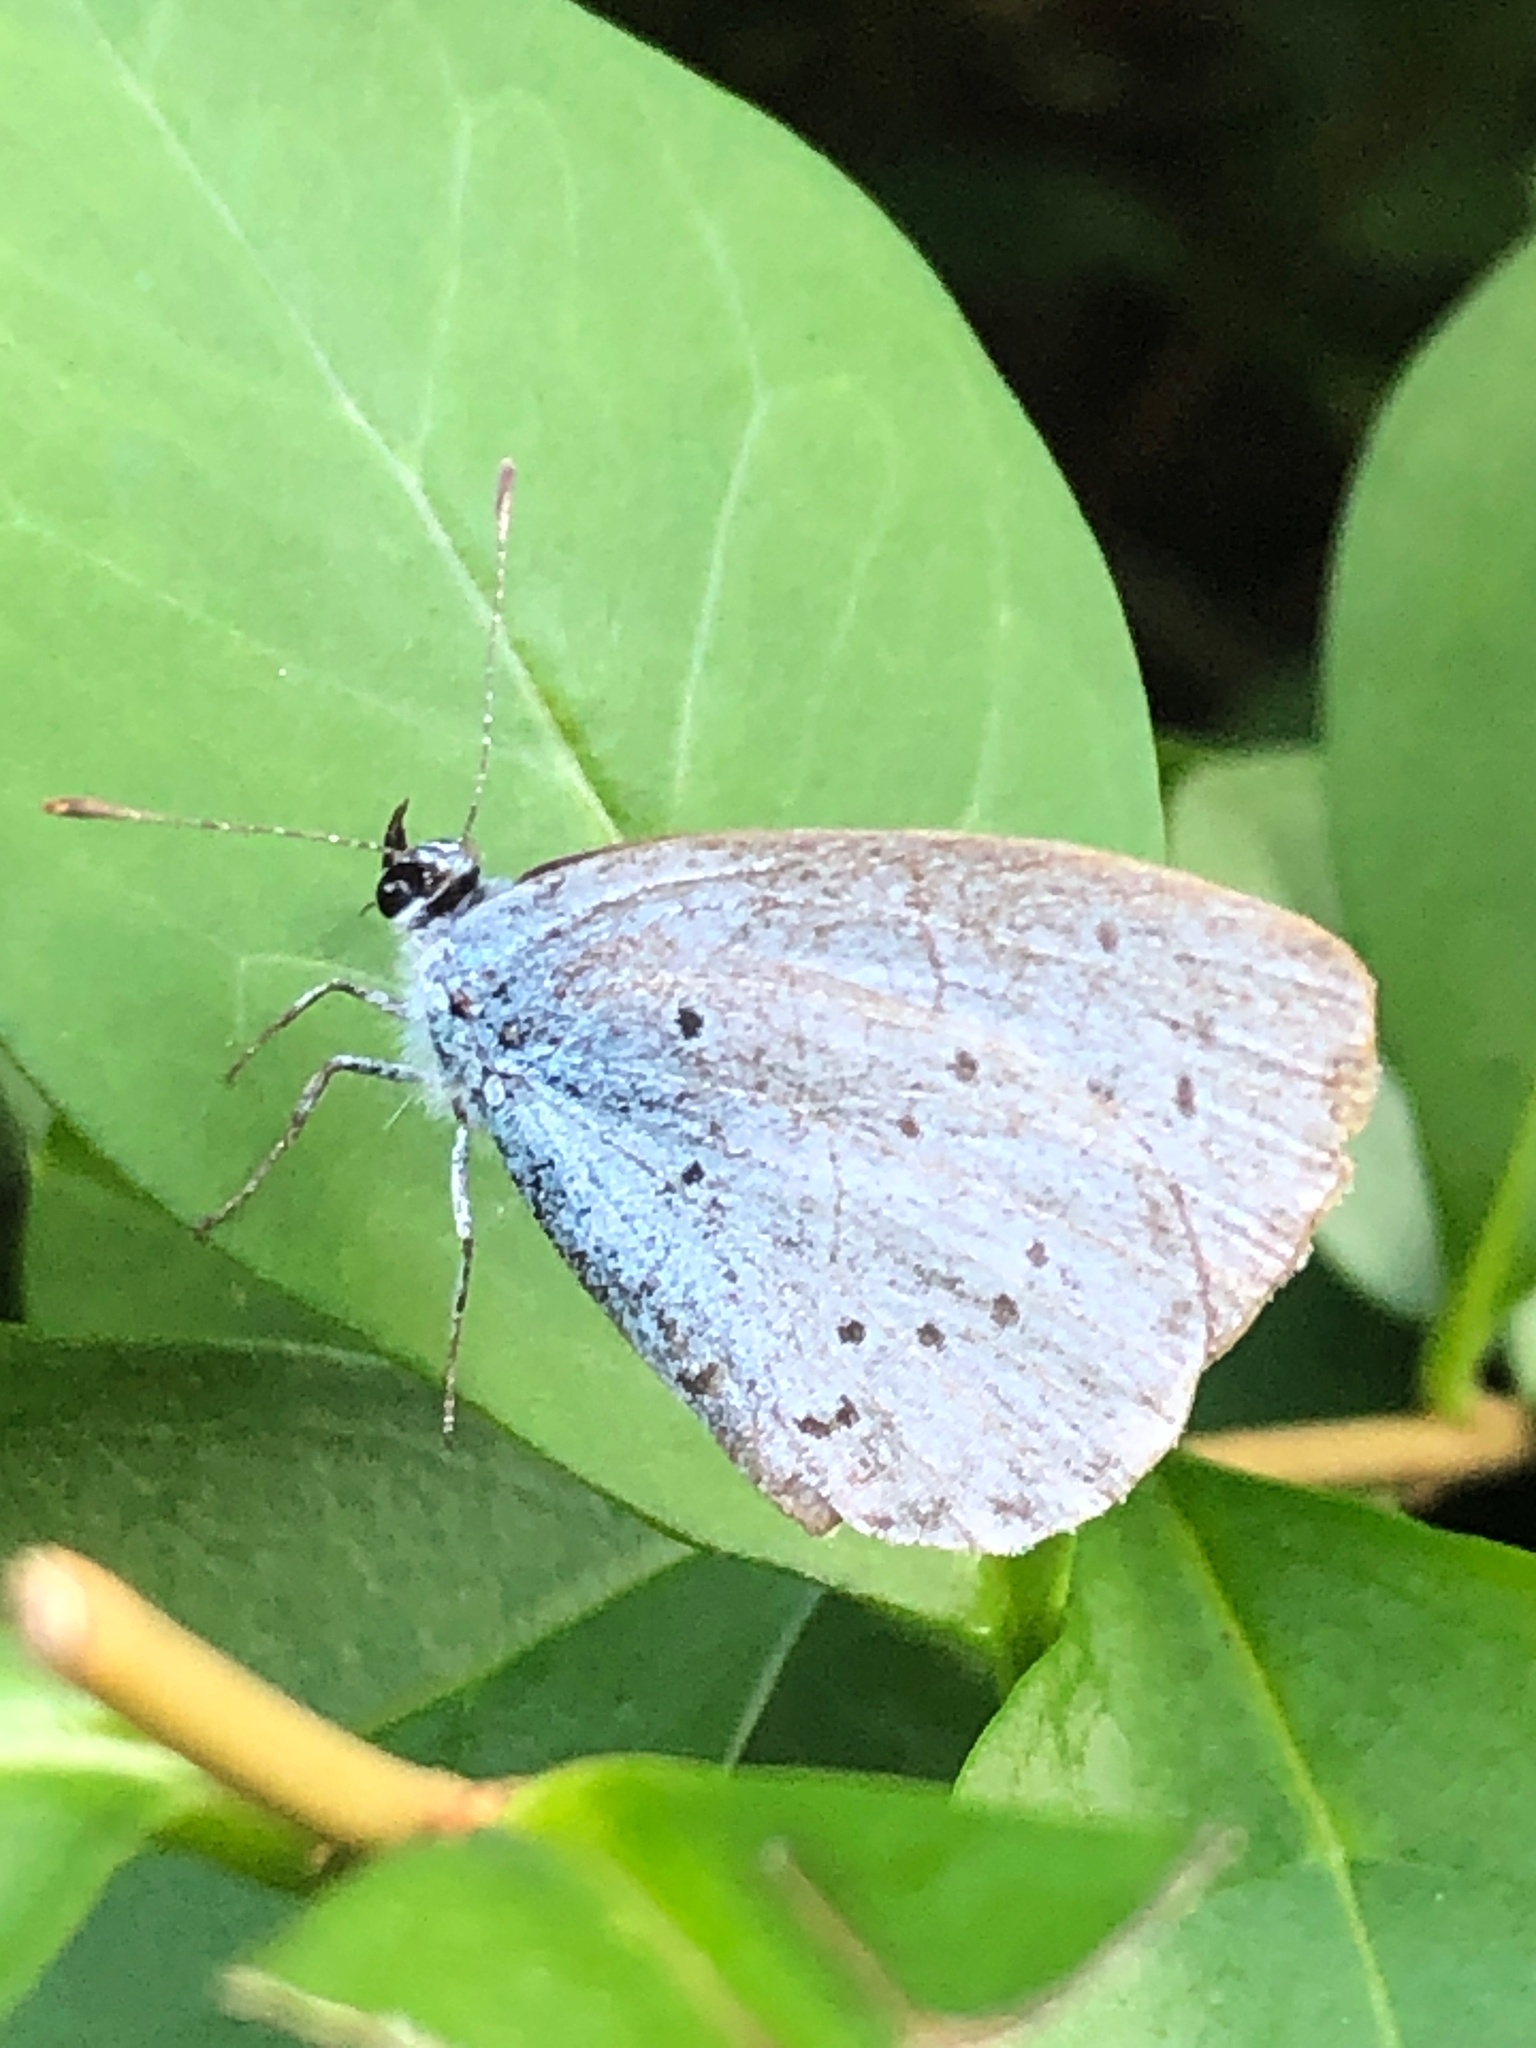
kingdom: Animalia
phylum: Arthropoda
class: Insecta
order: Lepidoptera
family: Lycaenidae
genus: Celastrina
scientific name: Celastrina argiolus
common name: Holly blue
